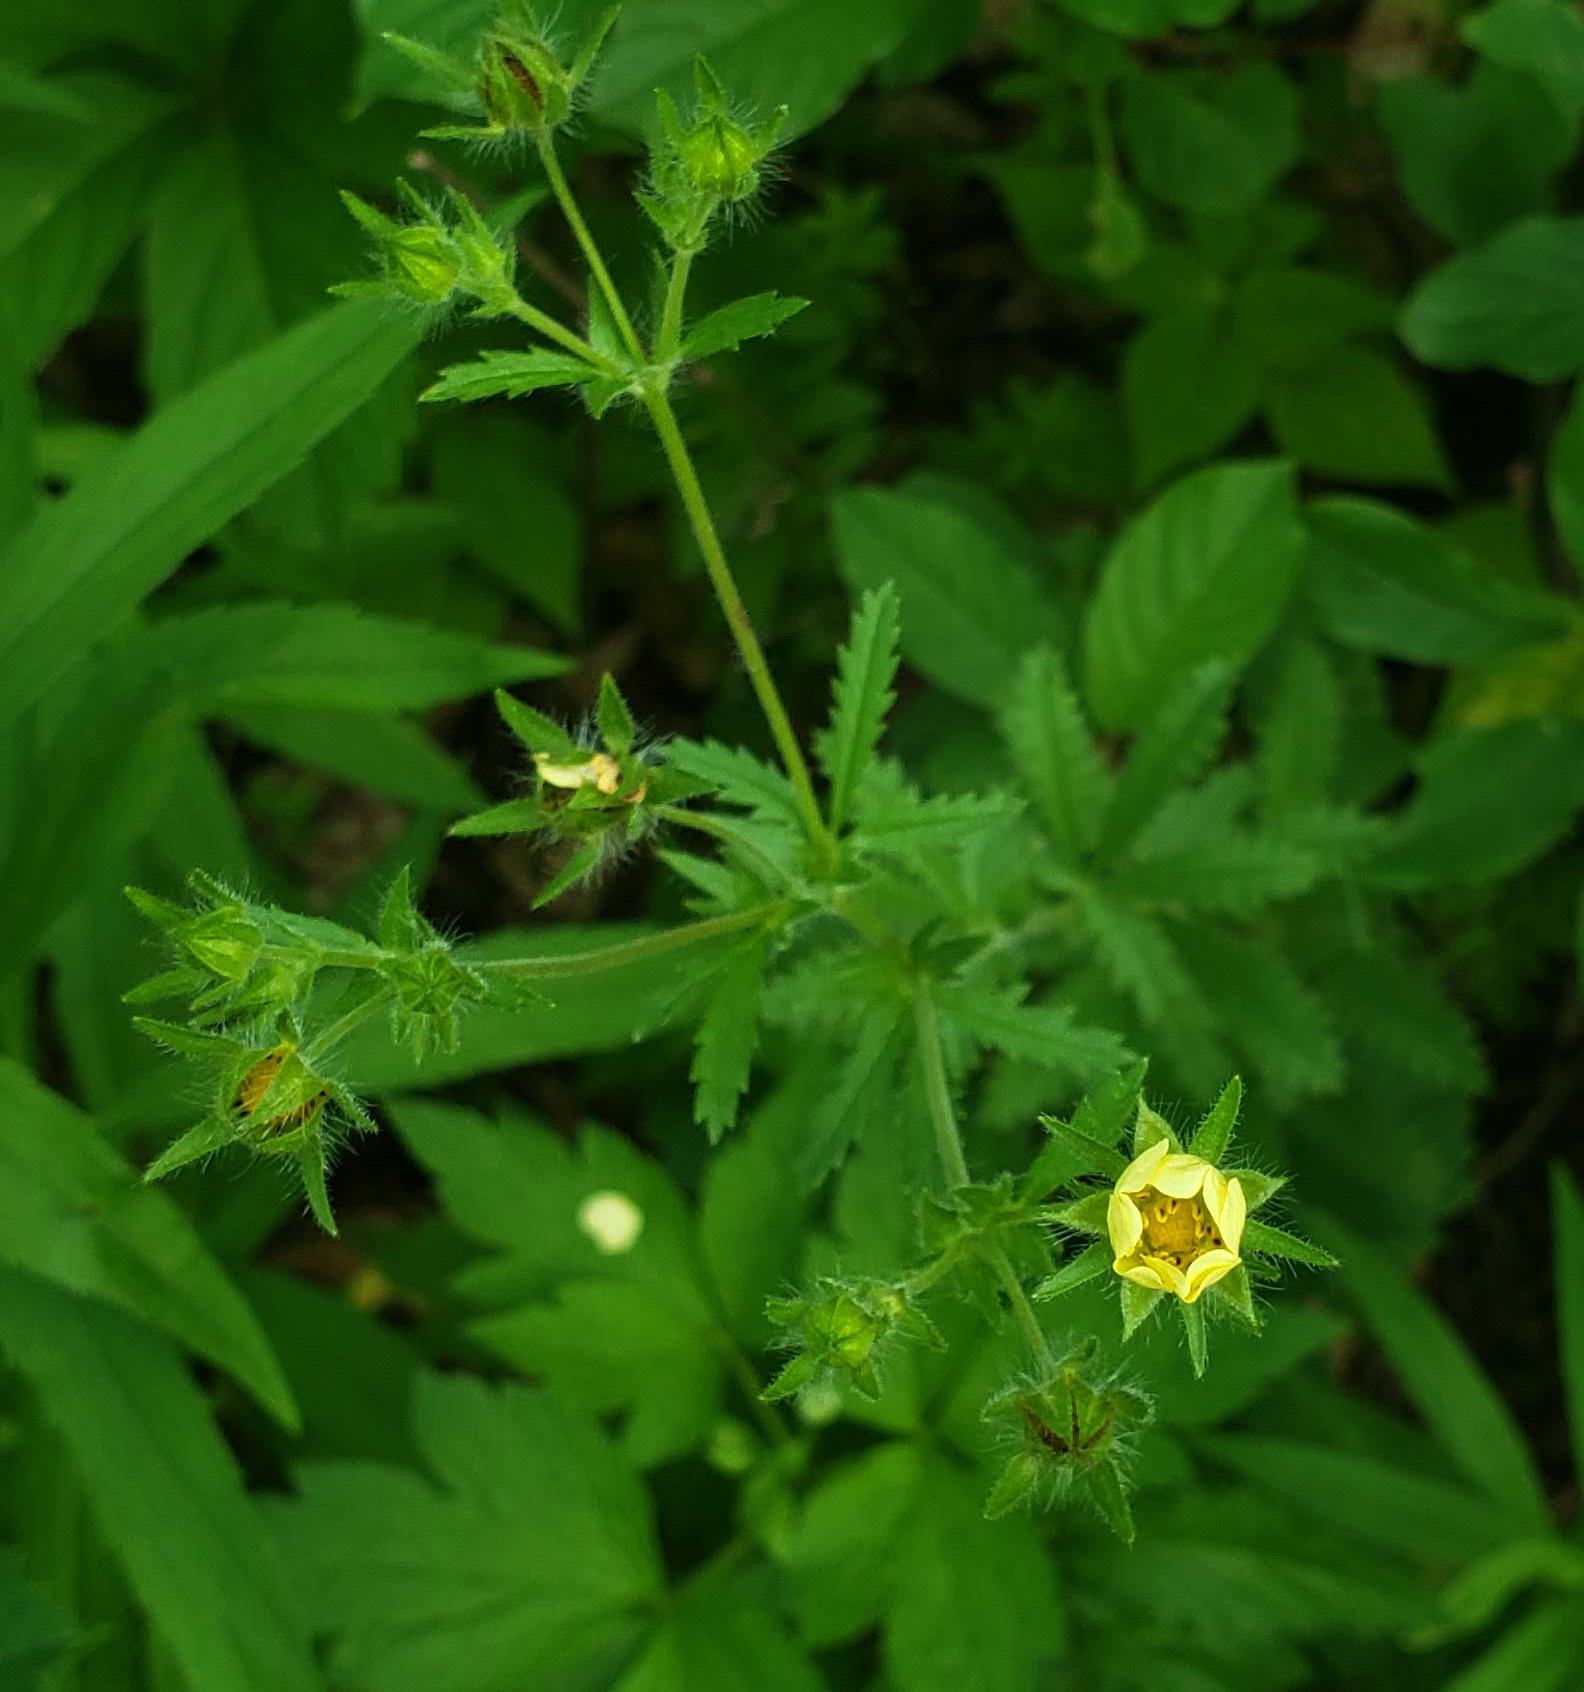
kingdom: Plantae
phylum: Tracheophyta
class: Magnoliopsida
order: Rosales
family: Rosaceae
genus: Potentilla
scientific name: Potentilla recta
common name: Sulphur cinquefoil
